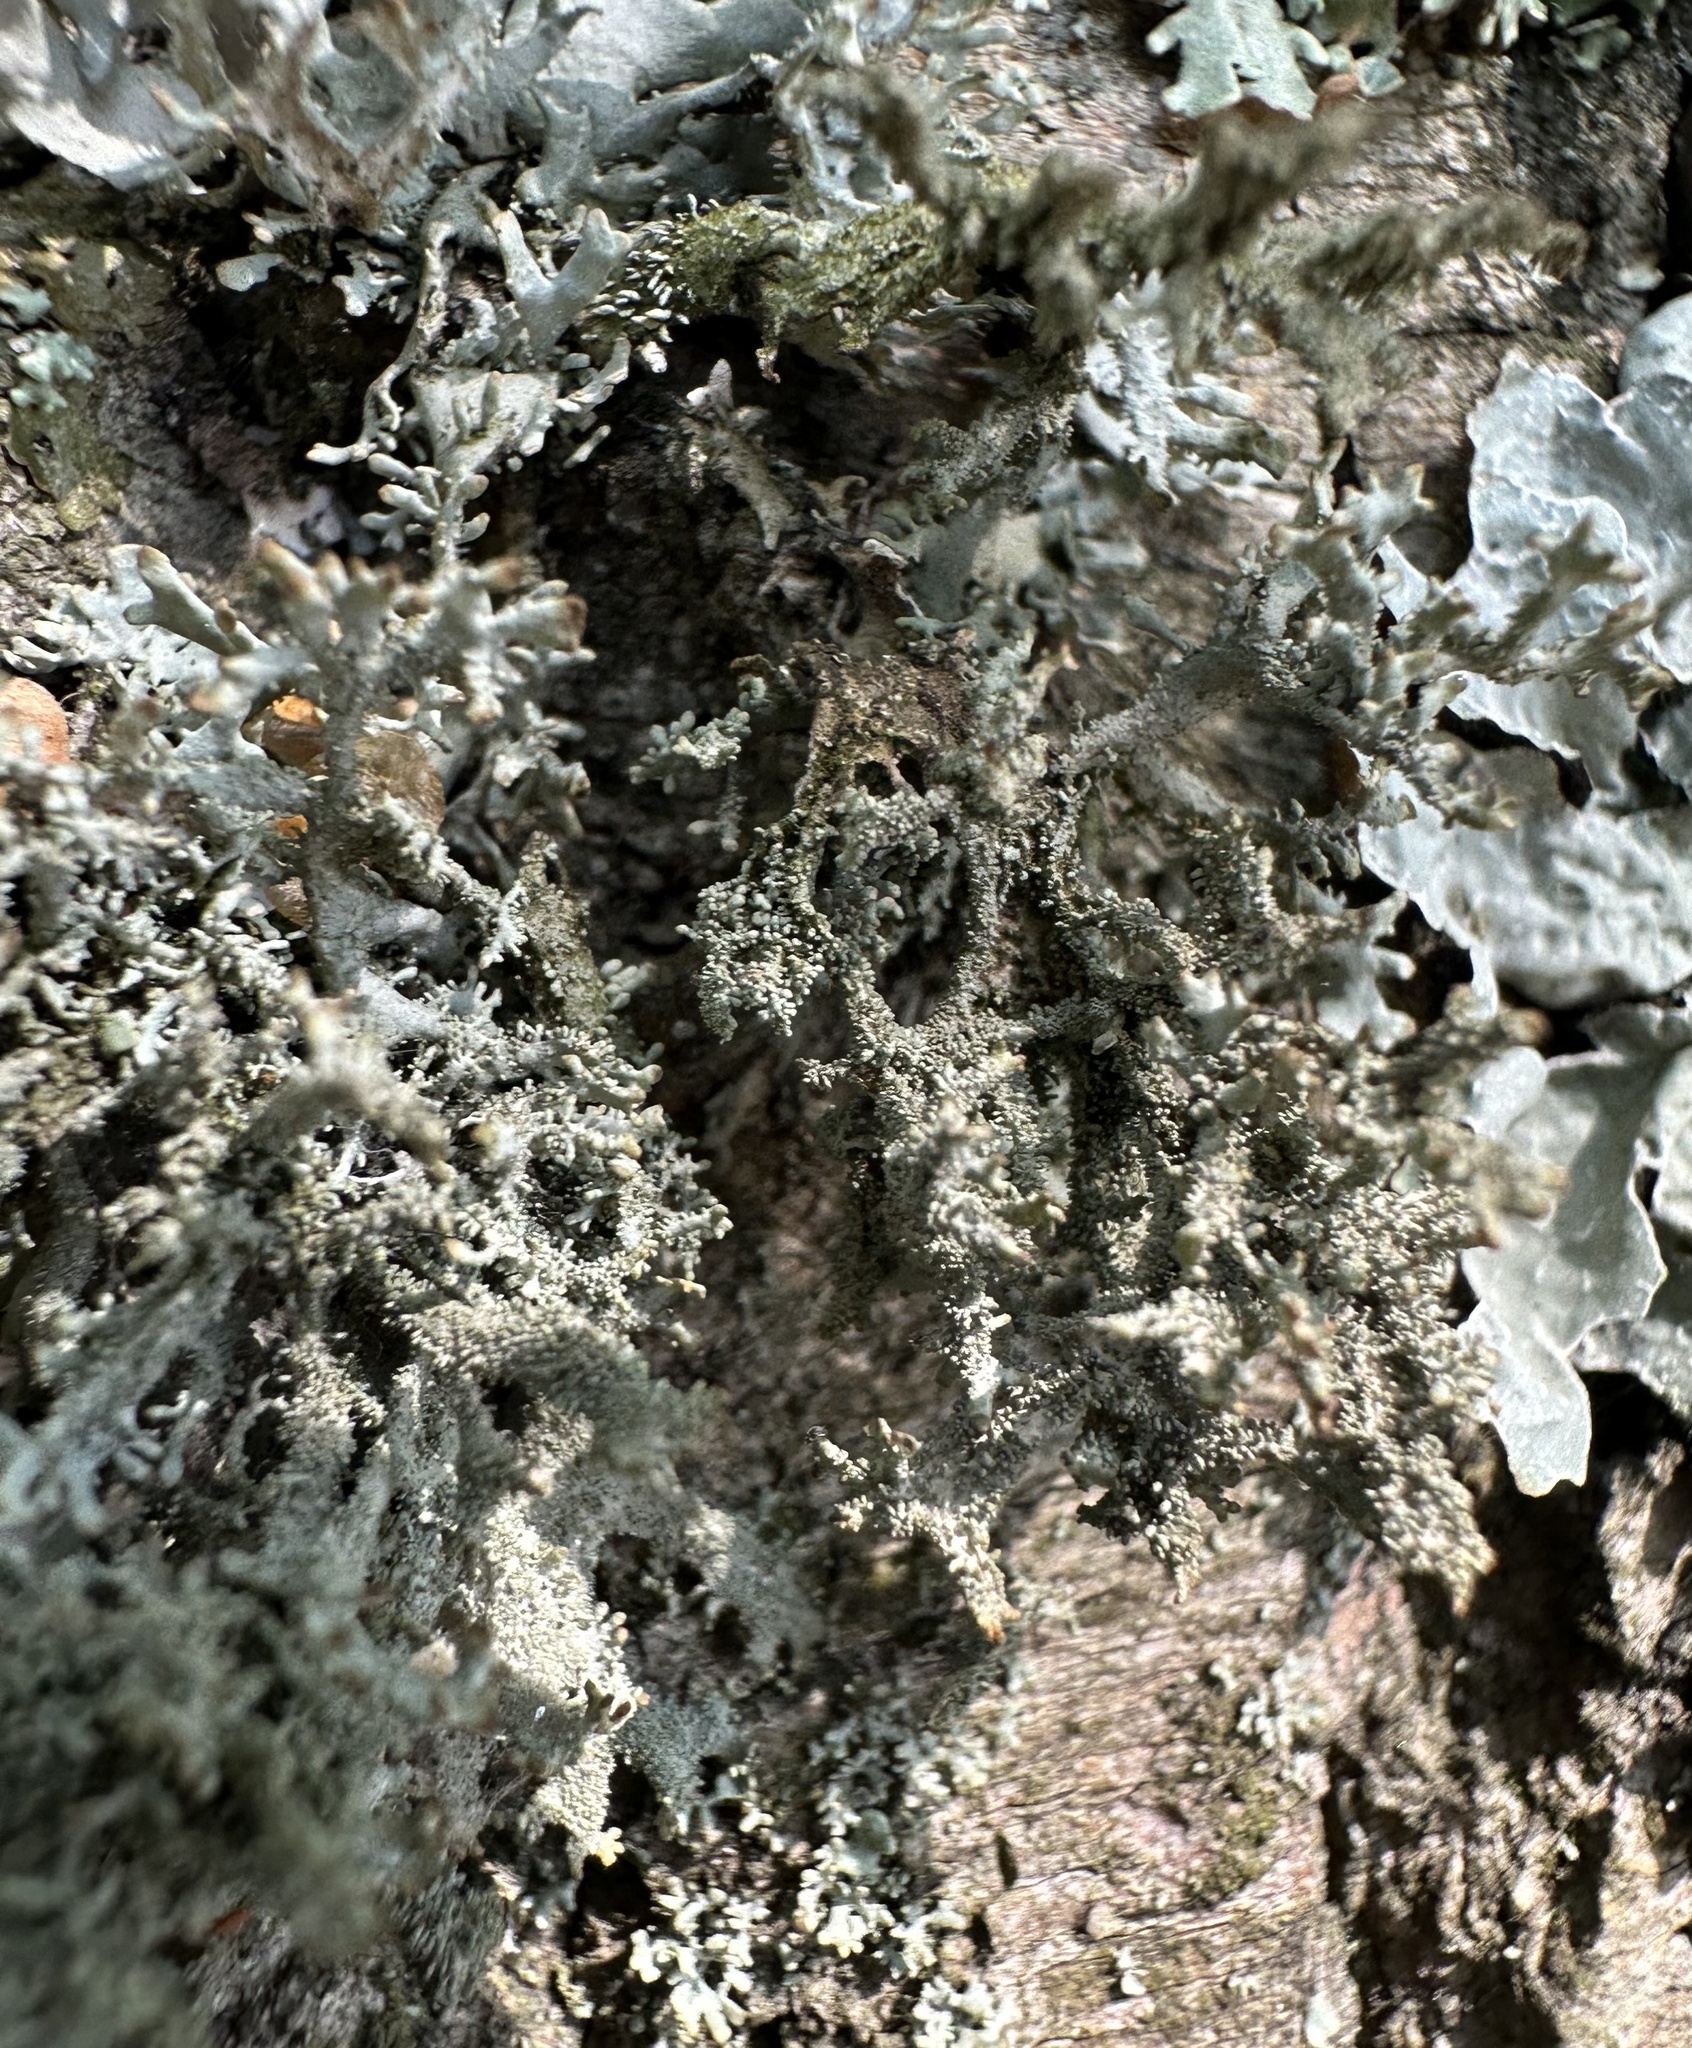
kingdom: Fungi
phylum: Ascomycota
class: Lecanoromycetes
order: Lecanorales
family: Parmeliaceae
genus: Pseudevernia
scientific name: Pseudevernia furfuracea
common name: Tree moss
